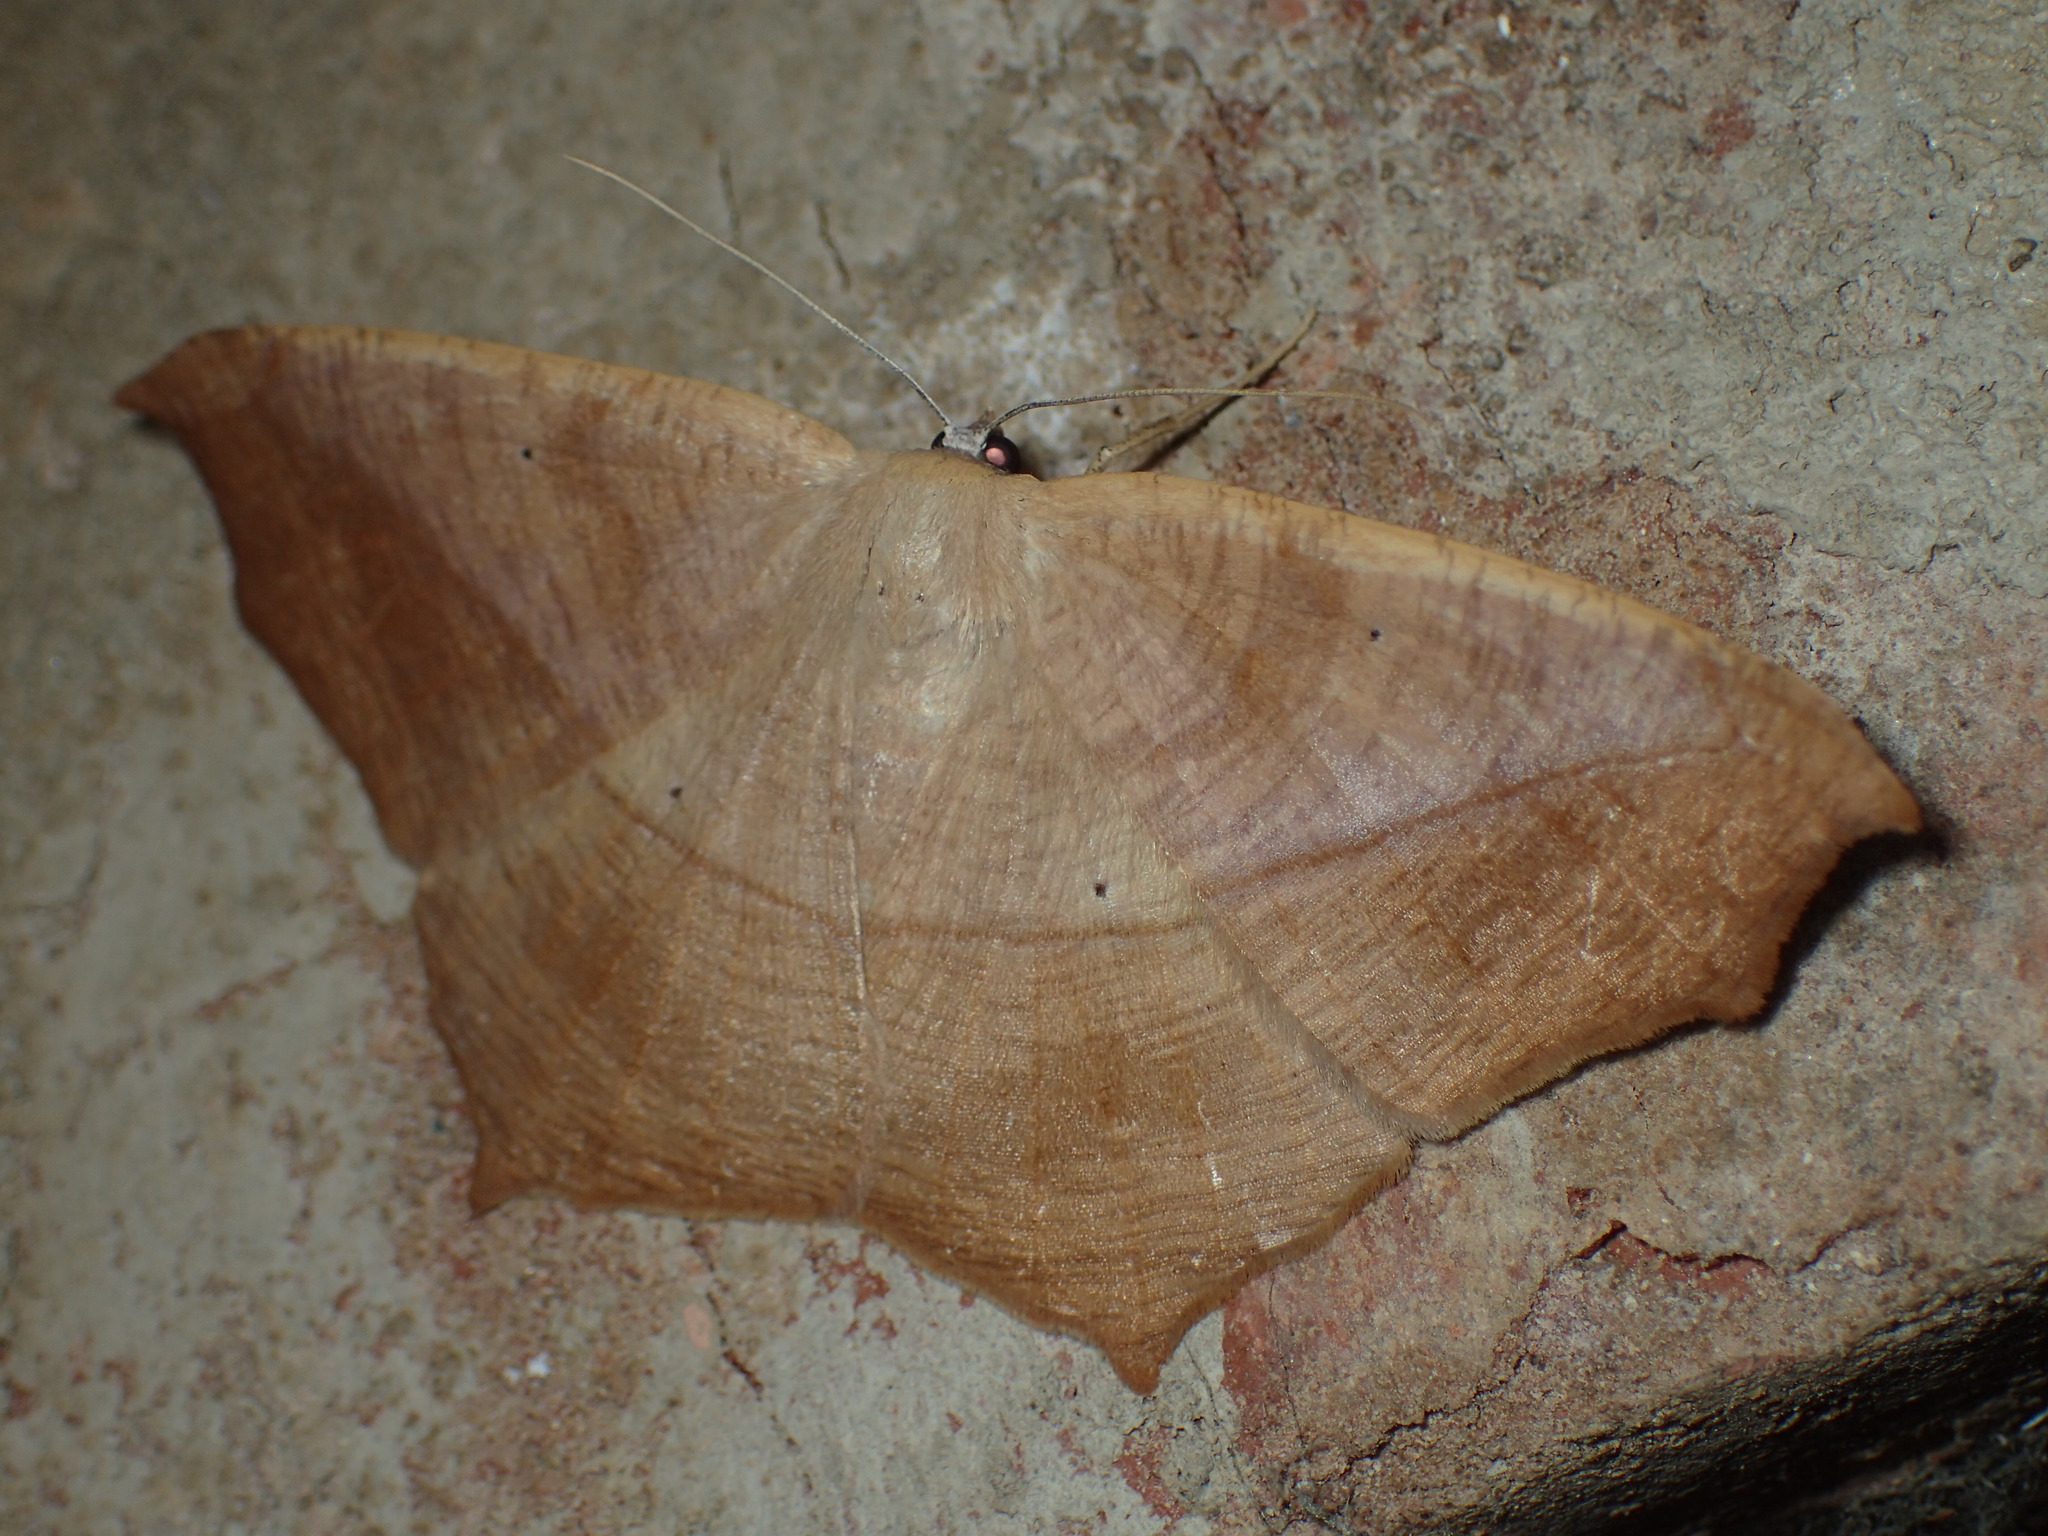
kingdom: Animalia
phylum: Arthropoda
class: Insecta
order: Lepidoptera
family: Geometridae
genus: Prochoerodes
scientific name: Prochoerodes lineola
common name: Large maple spanworm
